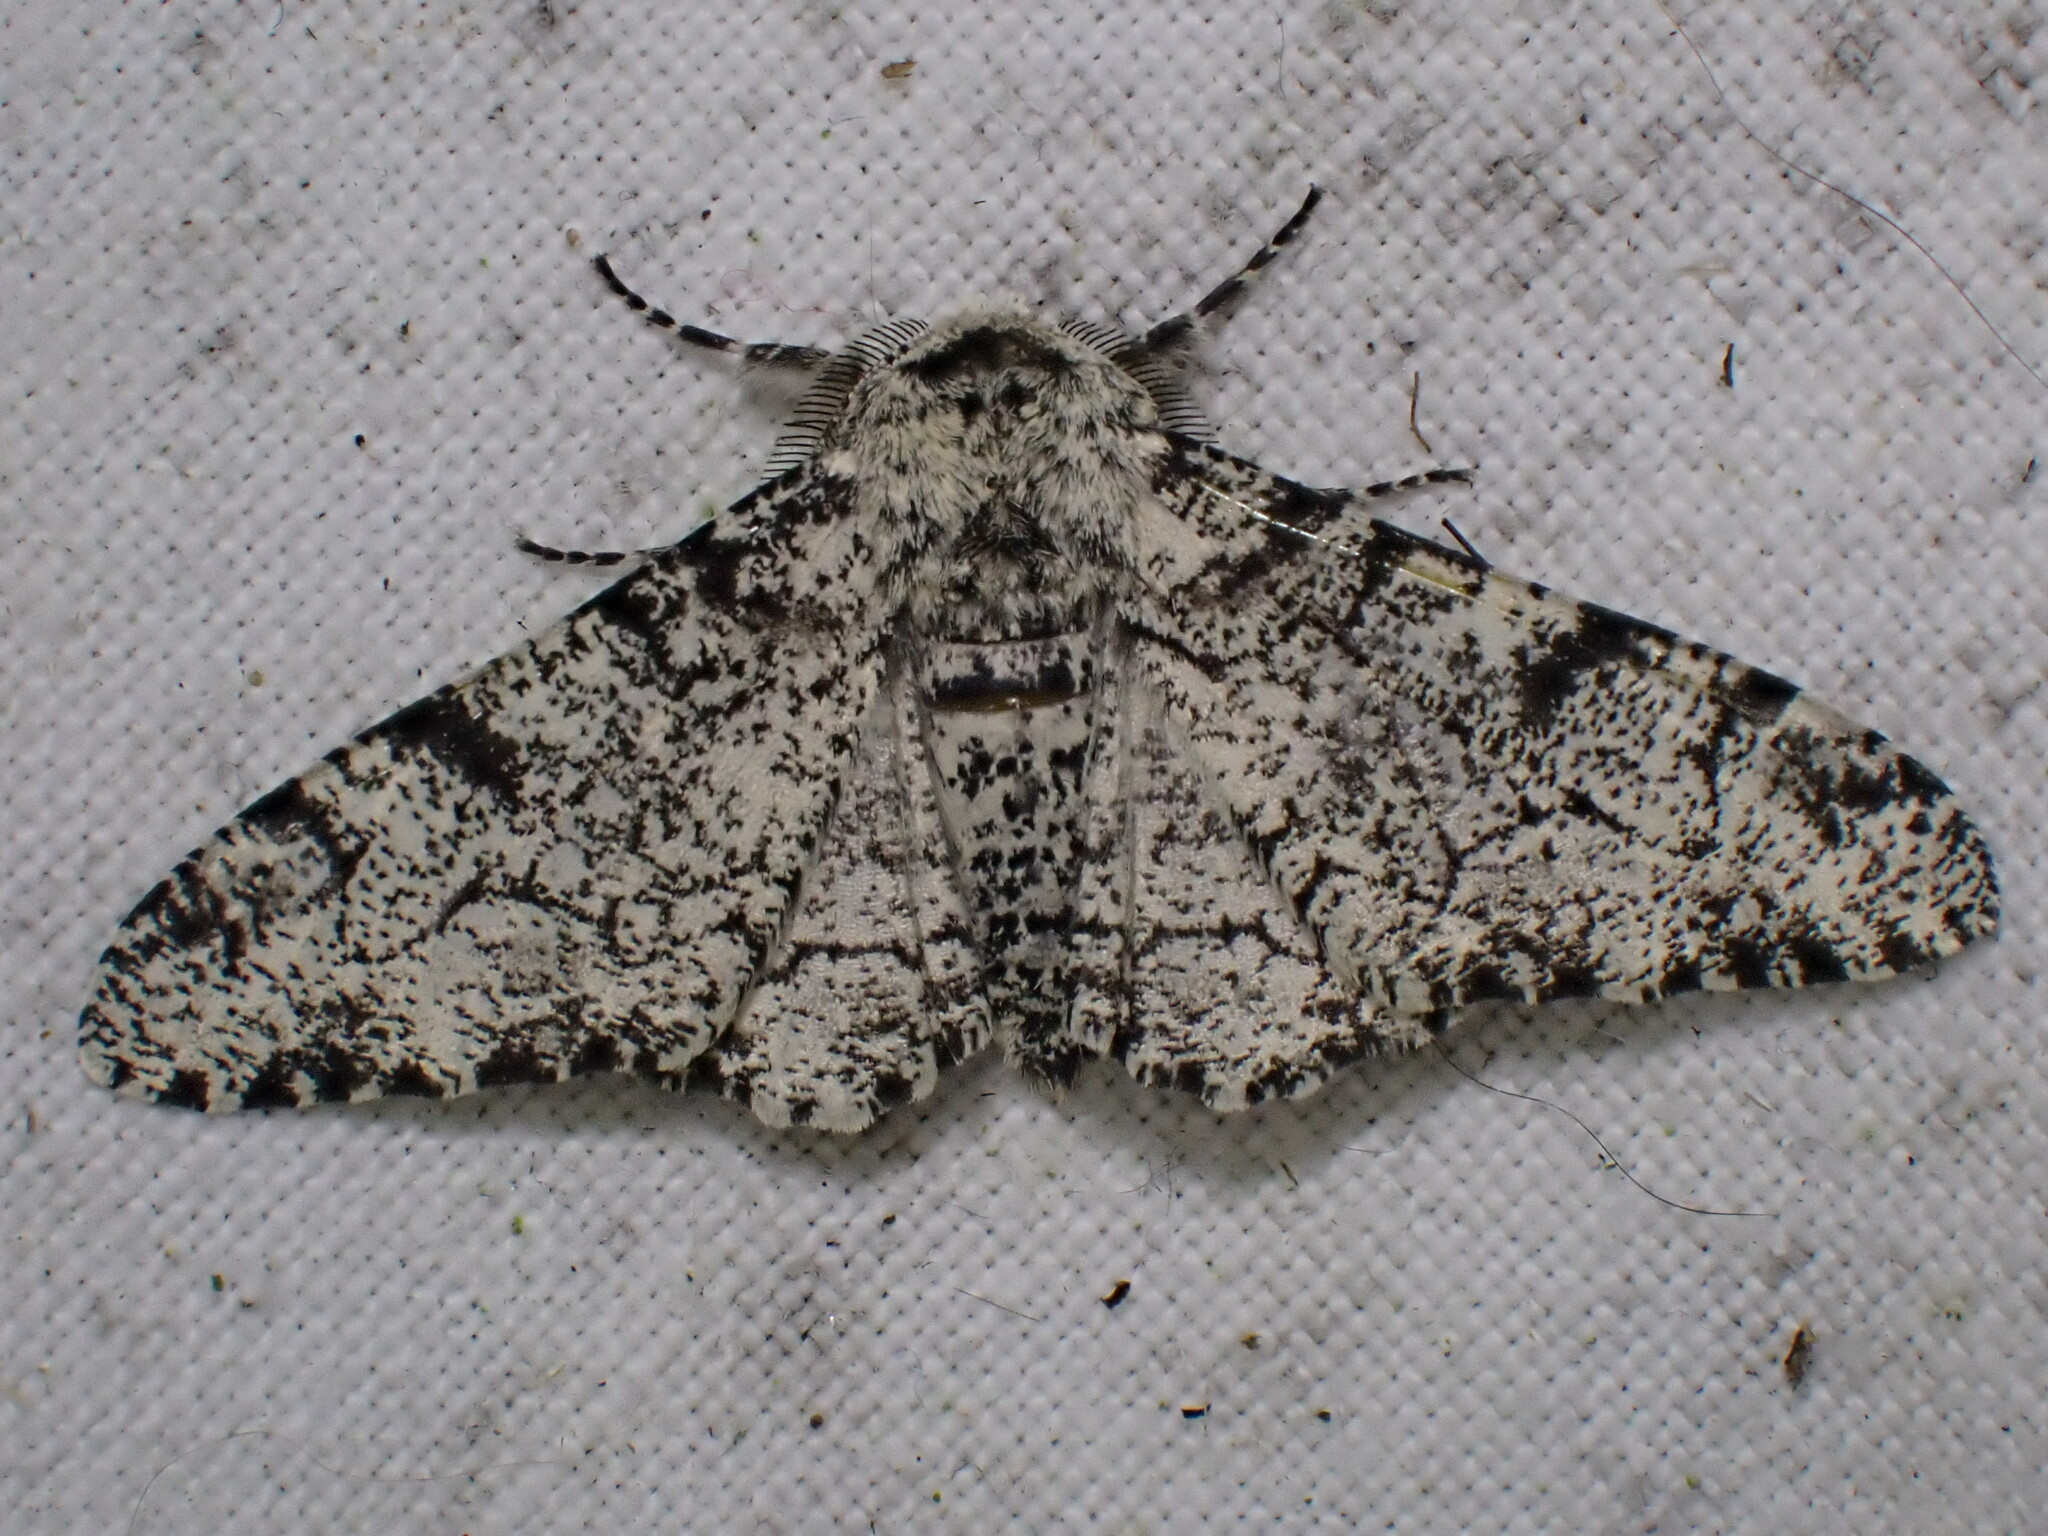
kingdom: Animalia
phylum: Arthropoda
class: Insecta
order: Lepidoptera
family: Geometridae
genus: Biston
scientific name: Biston betularia
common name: Peppered moth
